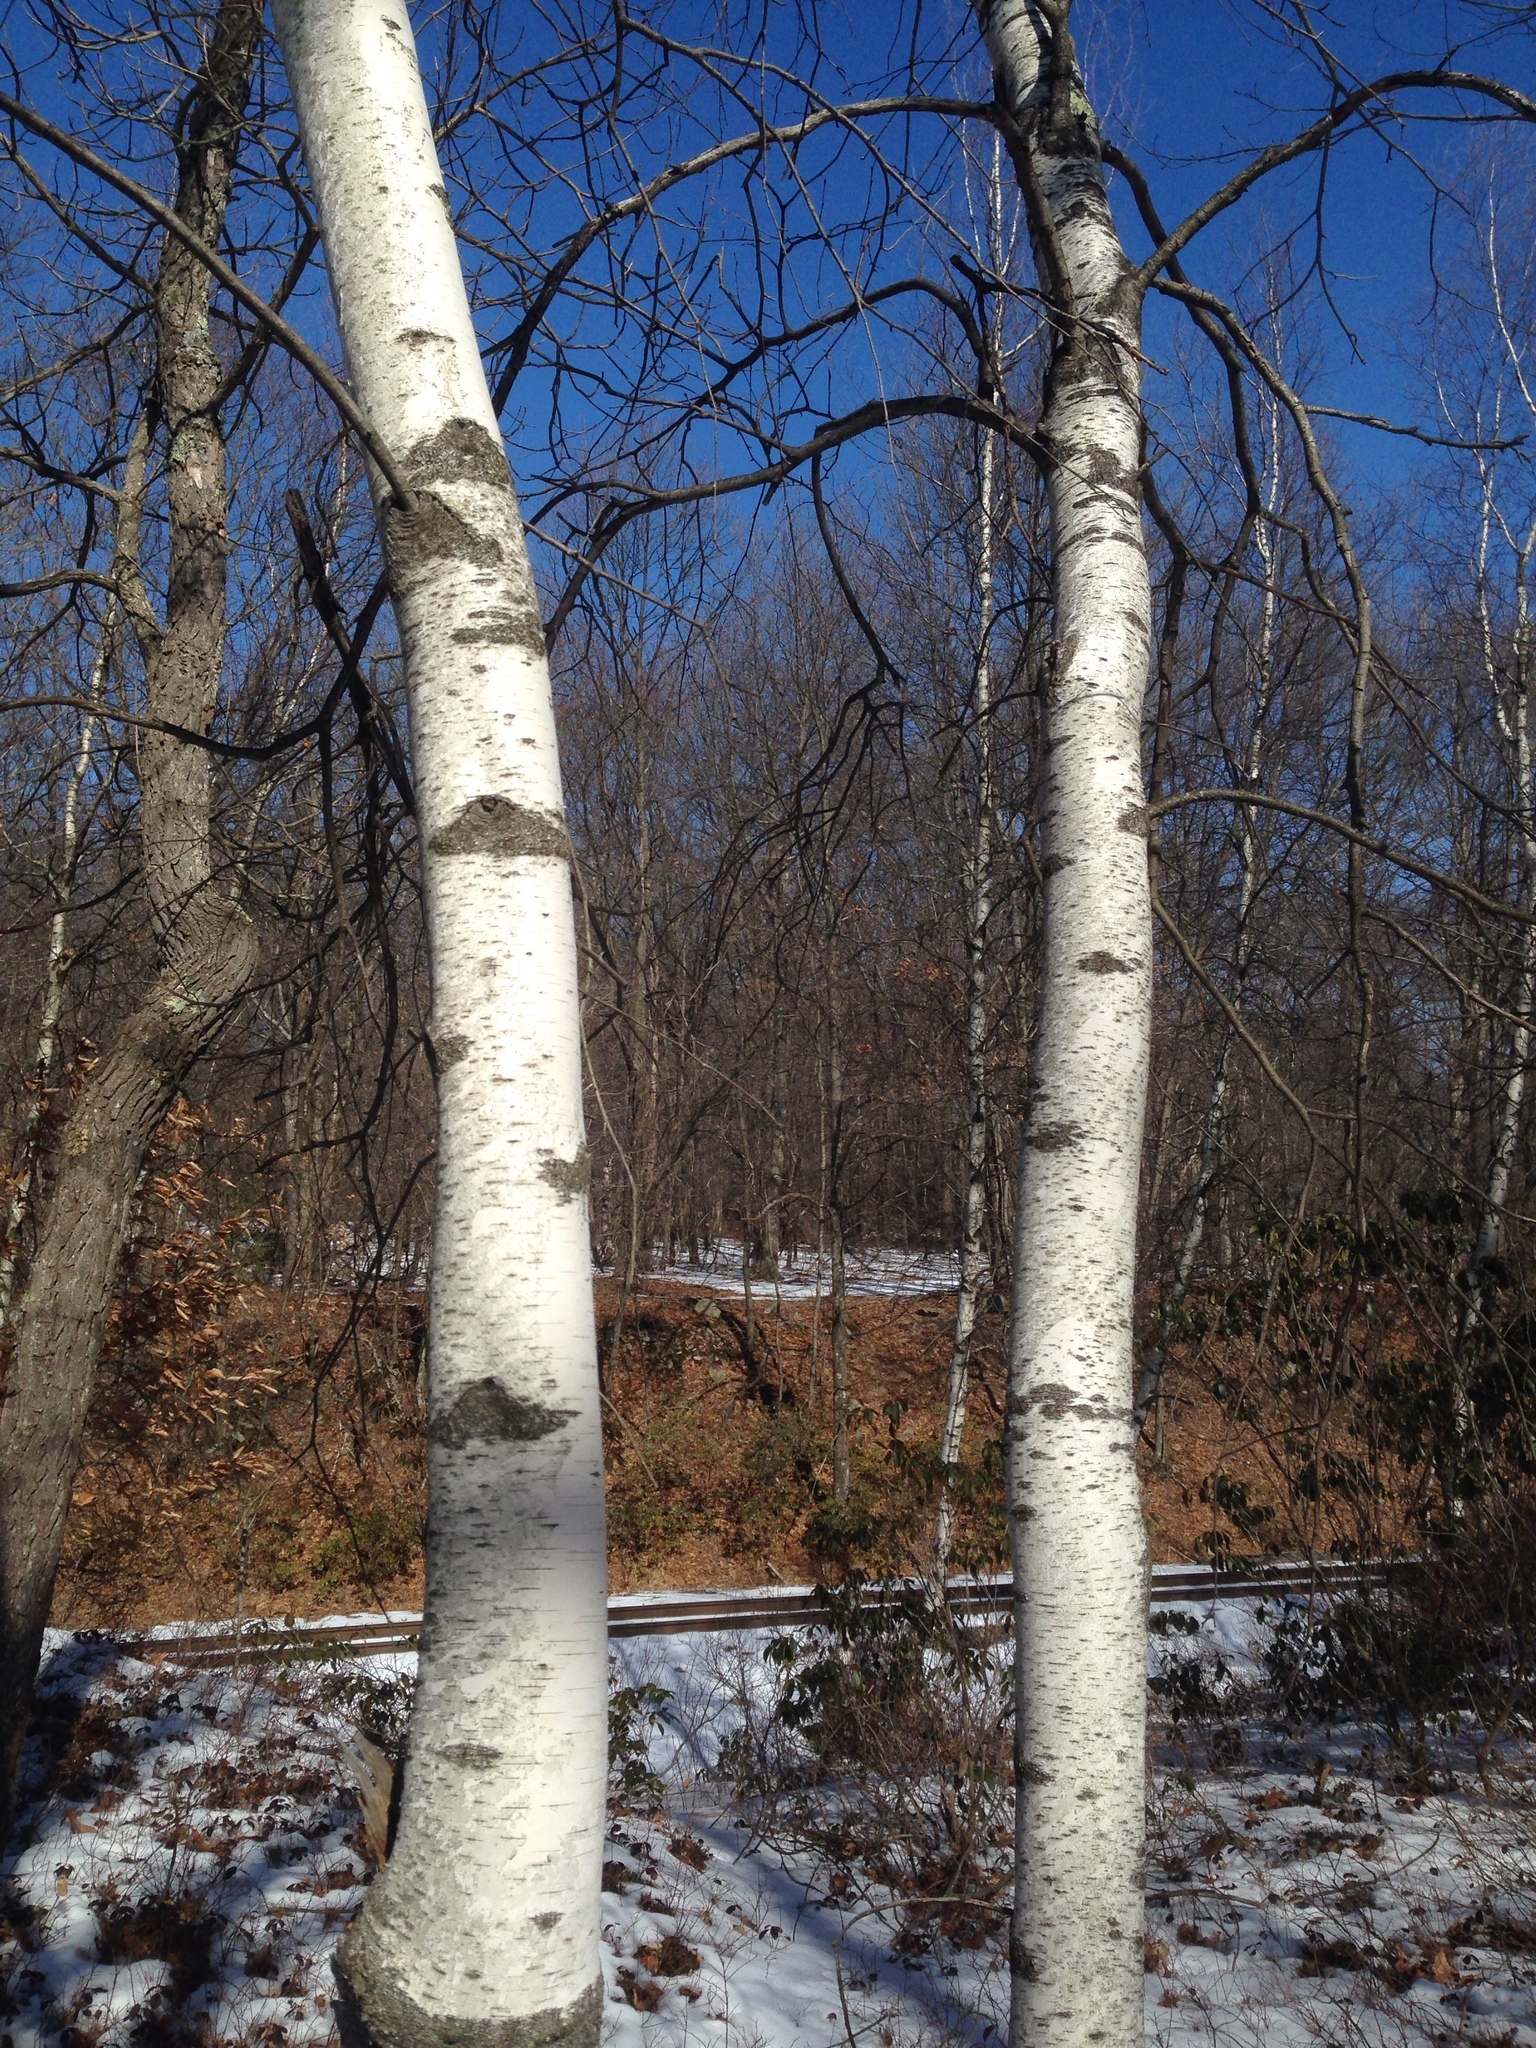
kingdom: Plantae
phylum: Tracheophyta
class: Magnoliopsida
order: Fagales
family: Betulaceae
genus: Betula
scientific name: Betula populifolia
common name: Fire birch
